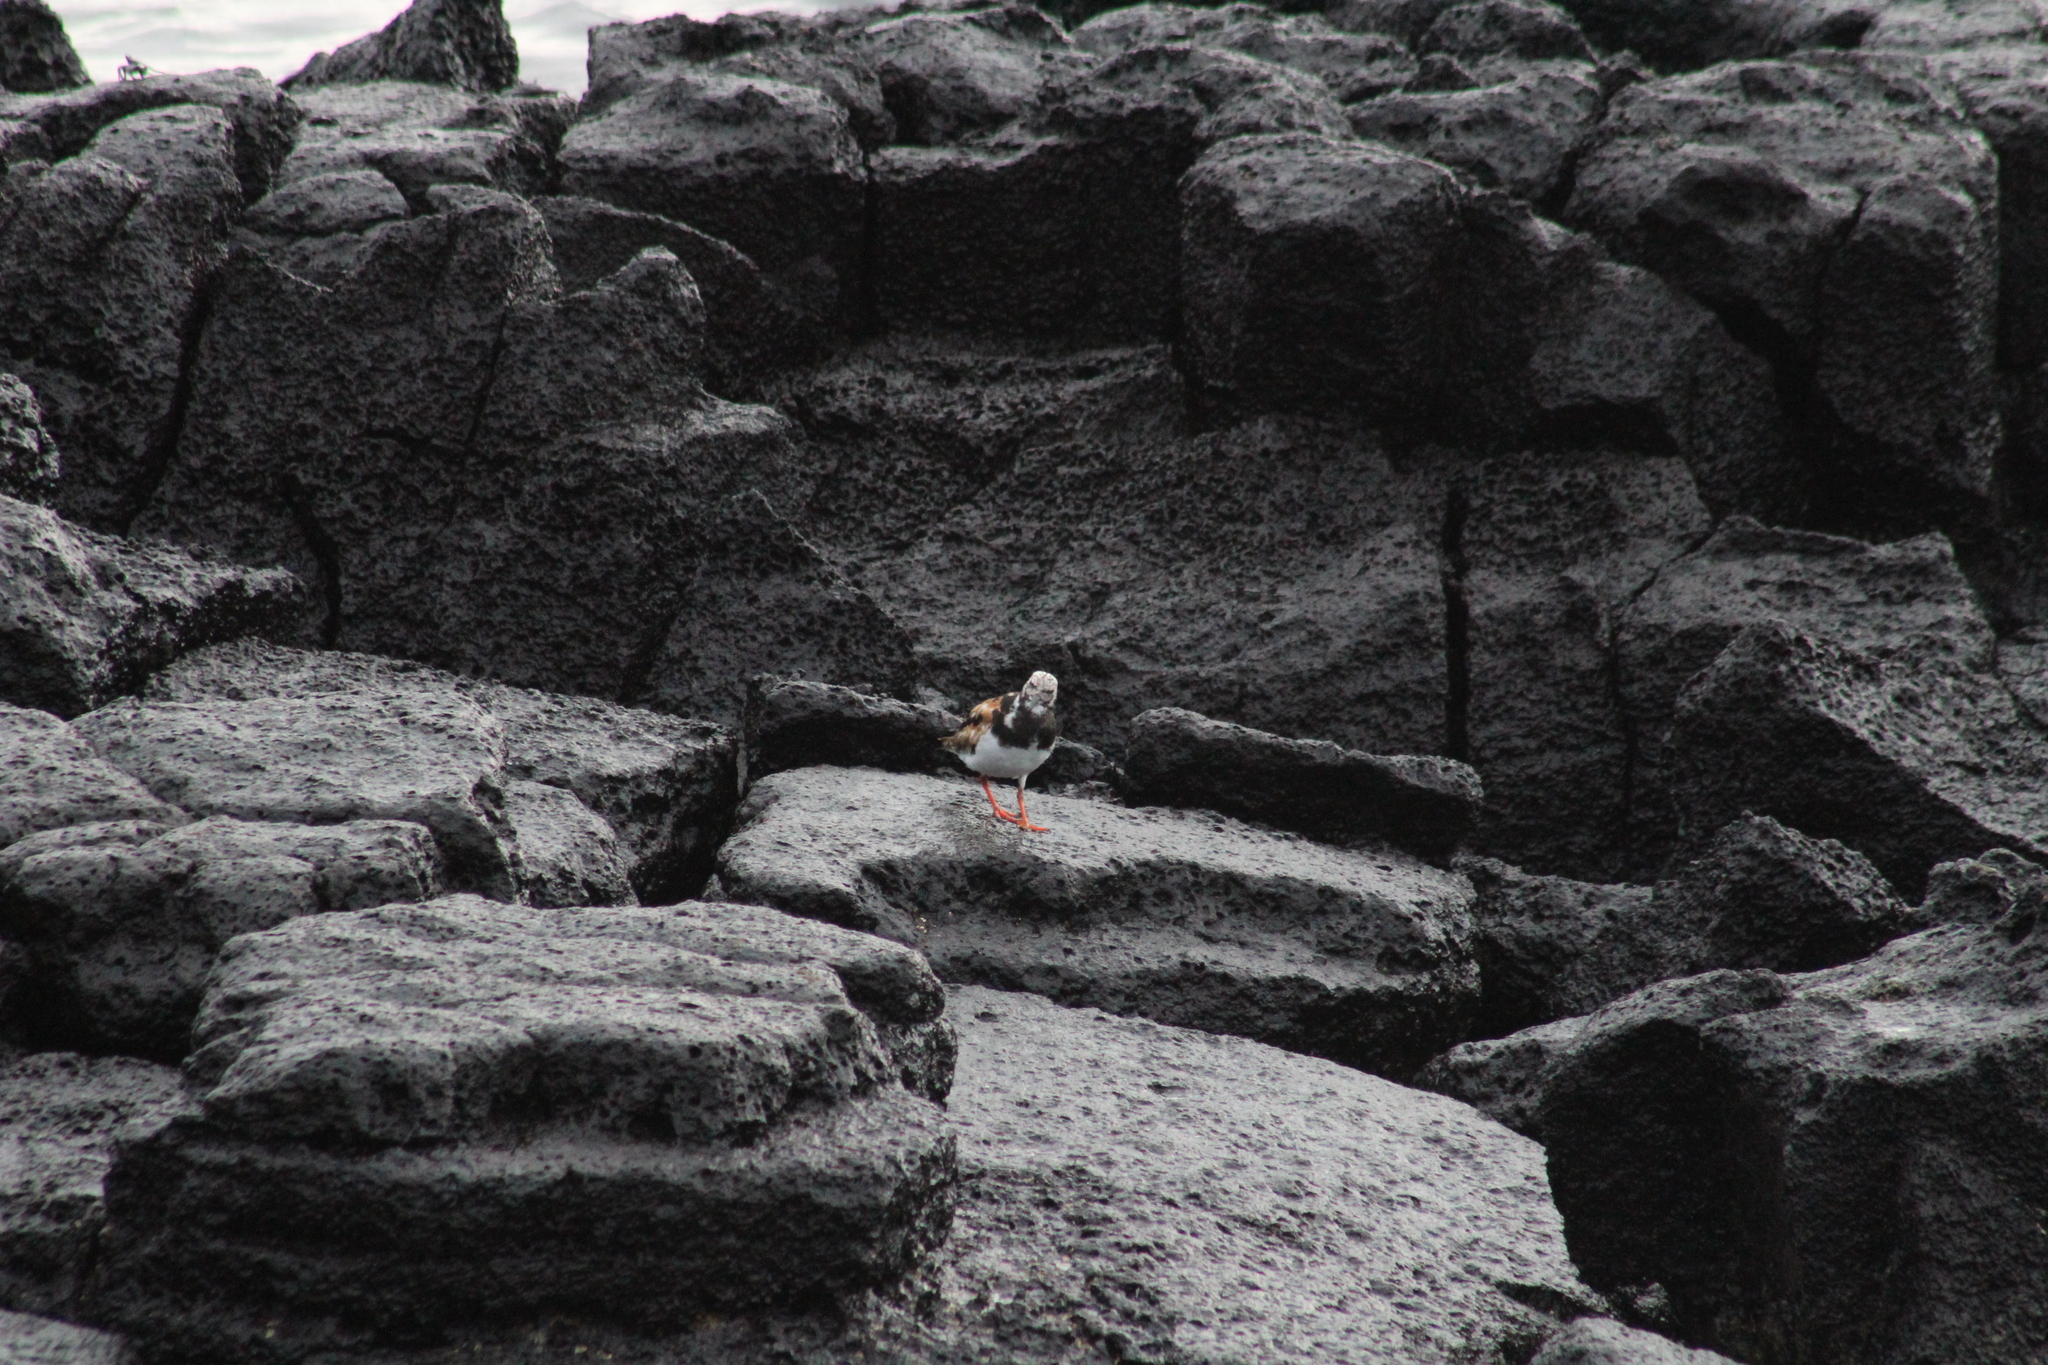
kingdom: Animalia
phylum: Chordata
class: Aves
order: Charadriiformes
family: Scolopacidae
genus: Arenaria
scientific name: Arenaria interpres
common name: Ruddy turnstone
